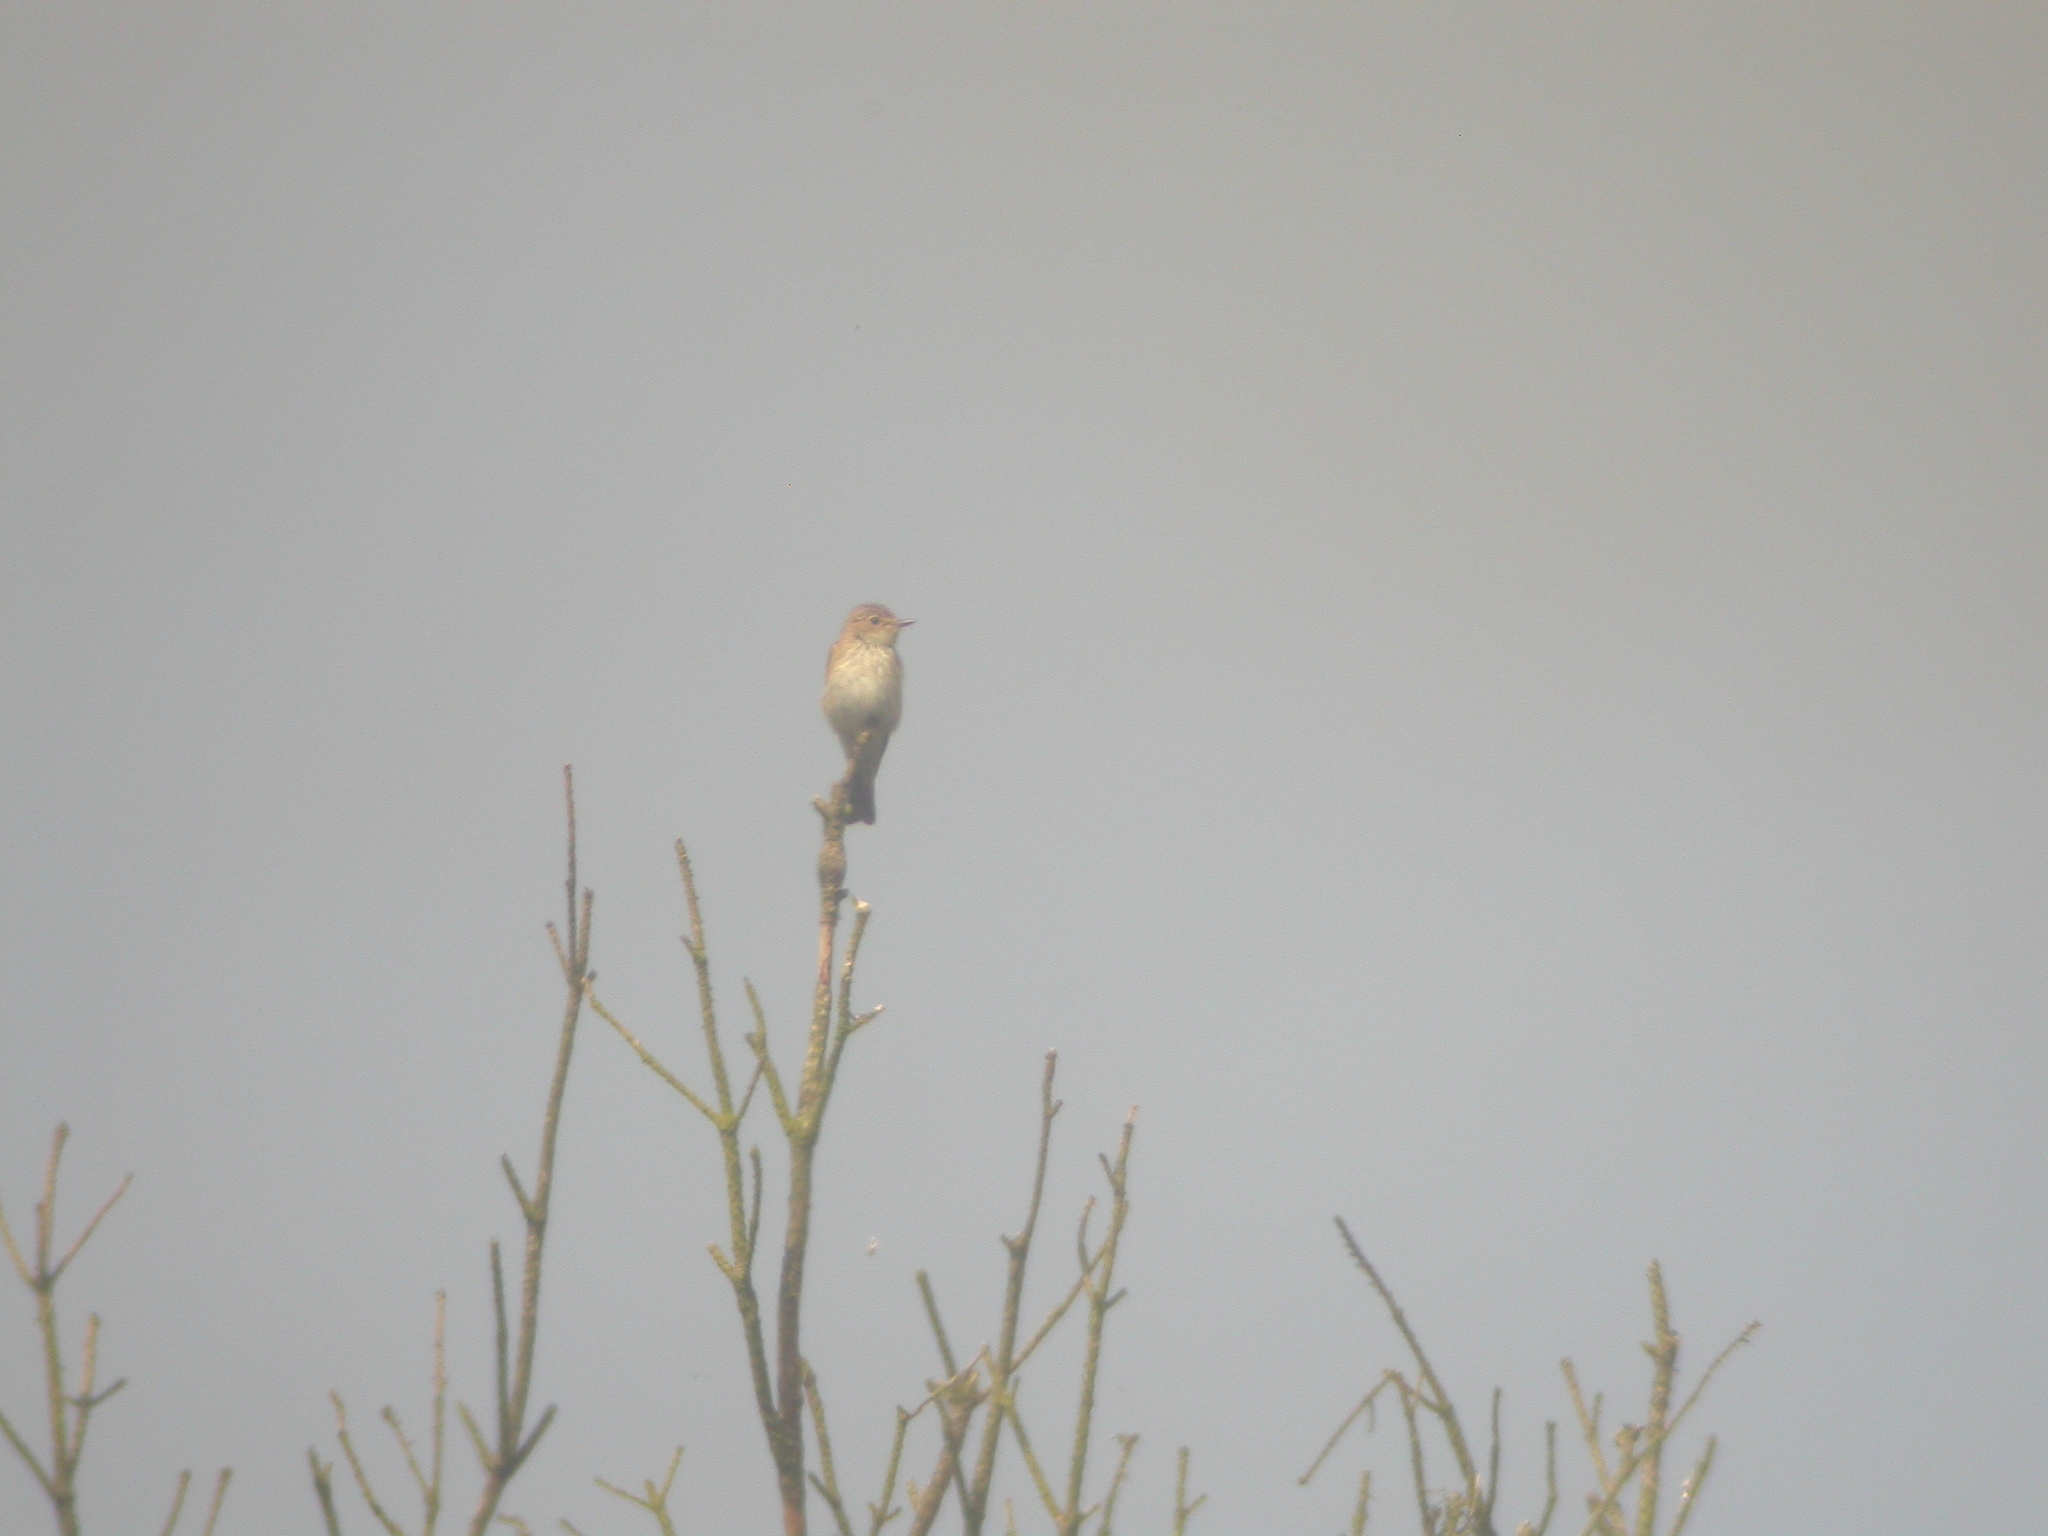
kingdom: Animalia
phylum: Chordata
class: Aves
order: Passeriformes
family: Muscicapidae
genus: Muscicapa
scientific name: Muscicapa striata
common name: Spotted flycatcher
